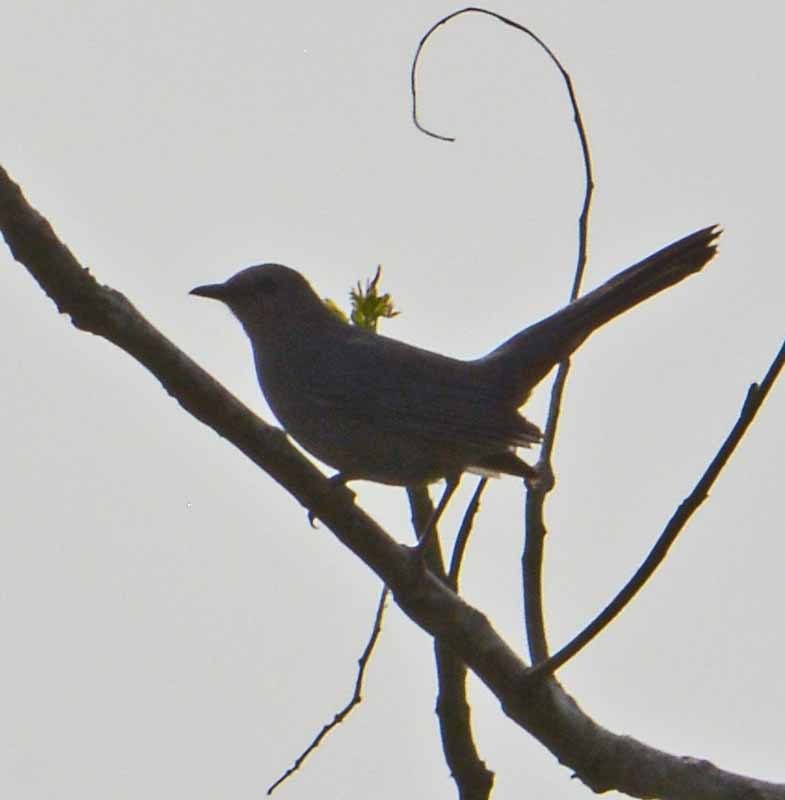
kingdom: Animalia
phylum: Chordata
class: Aves
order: Passeriformes
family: Mimidae
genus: Dumetella
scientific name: Dumetella carolinensis
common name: Gray catbird
